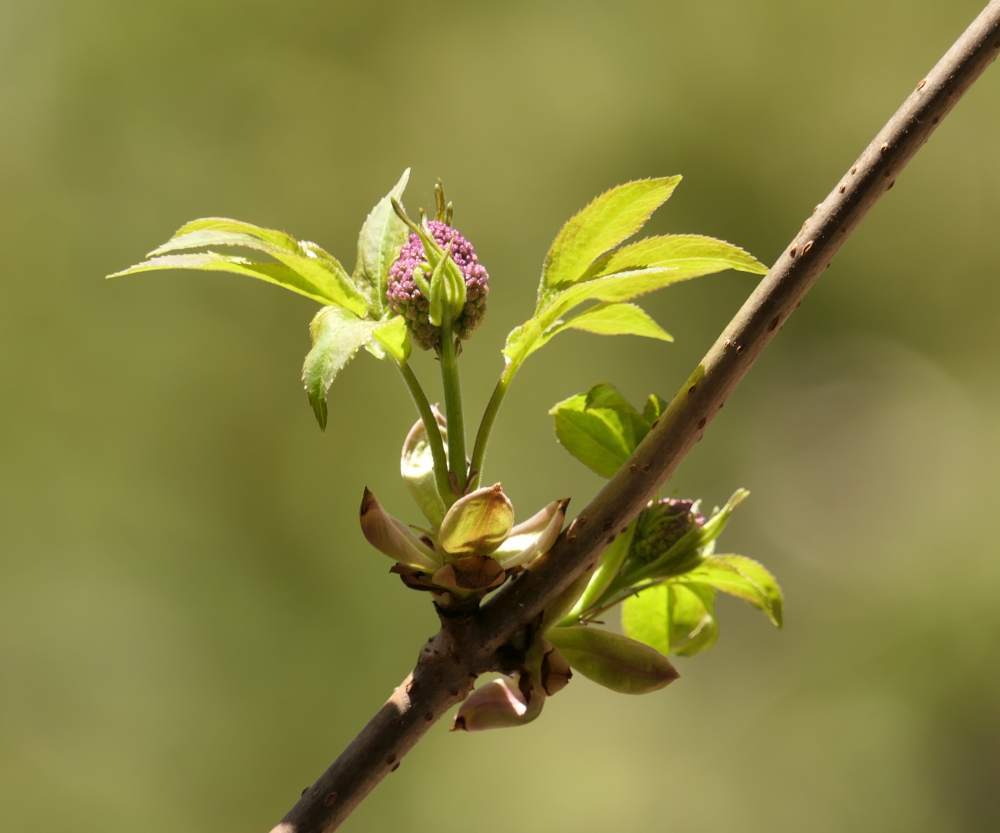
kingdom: Plantae
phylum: Tracheophyta
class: Magnoliopsida
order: Dipsacales
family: Viburnaceae
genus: Sambucus
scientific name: Sambucus racemosa
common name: Red-berried elder
